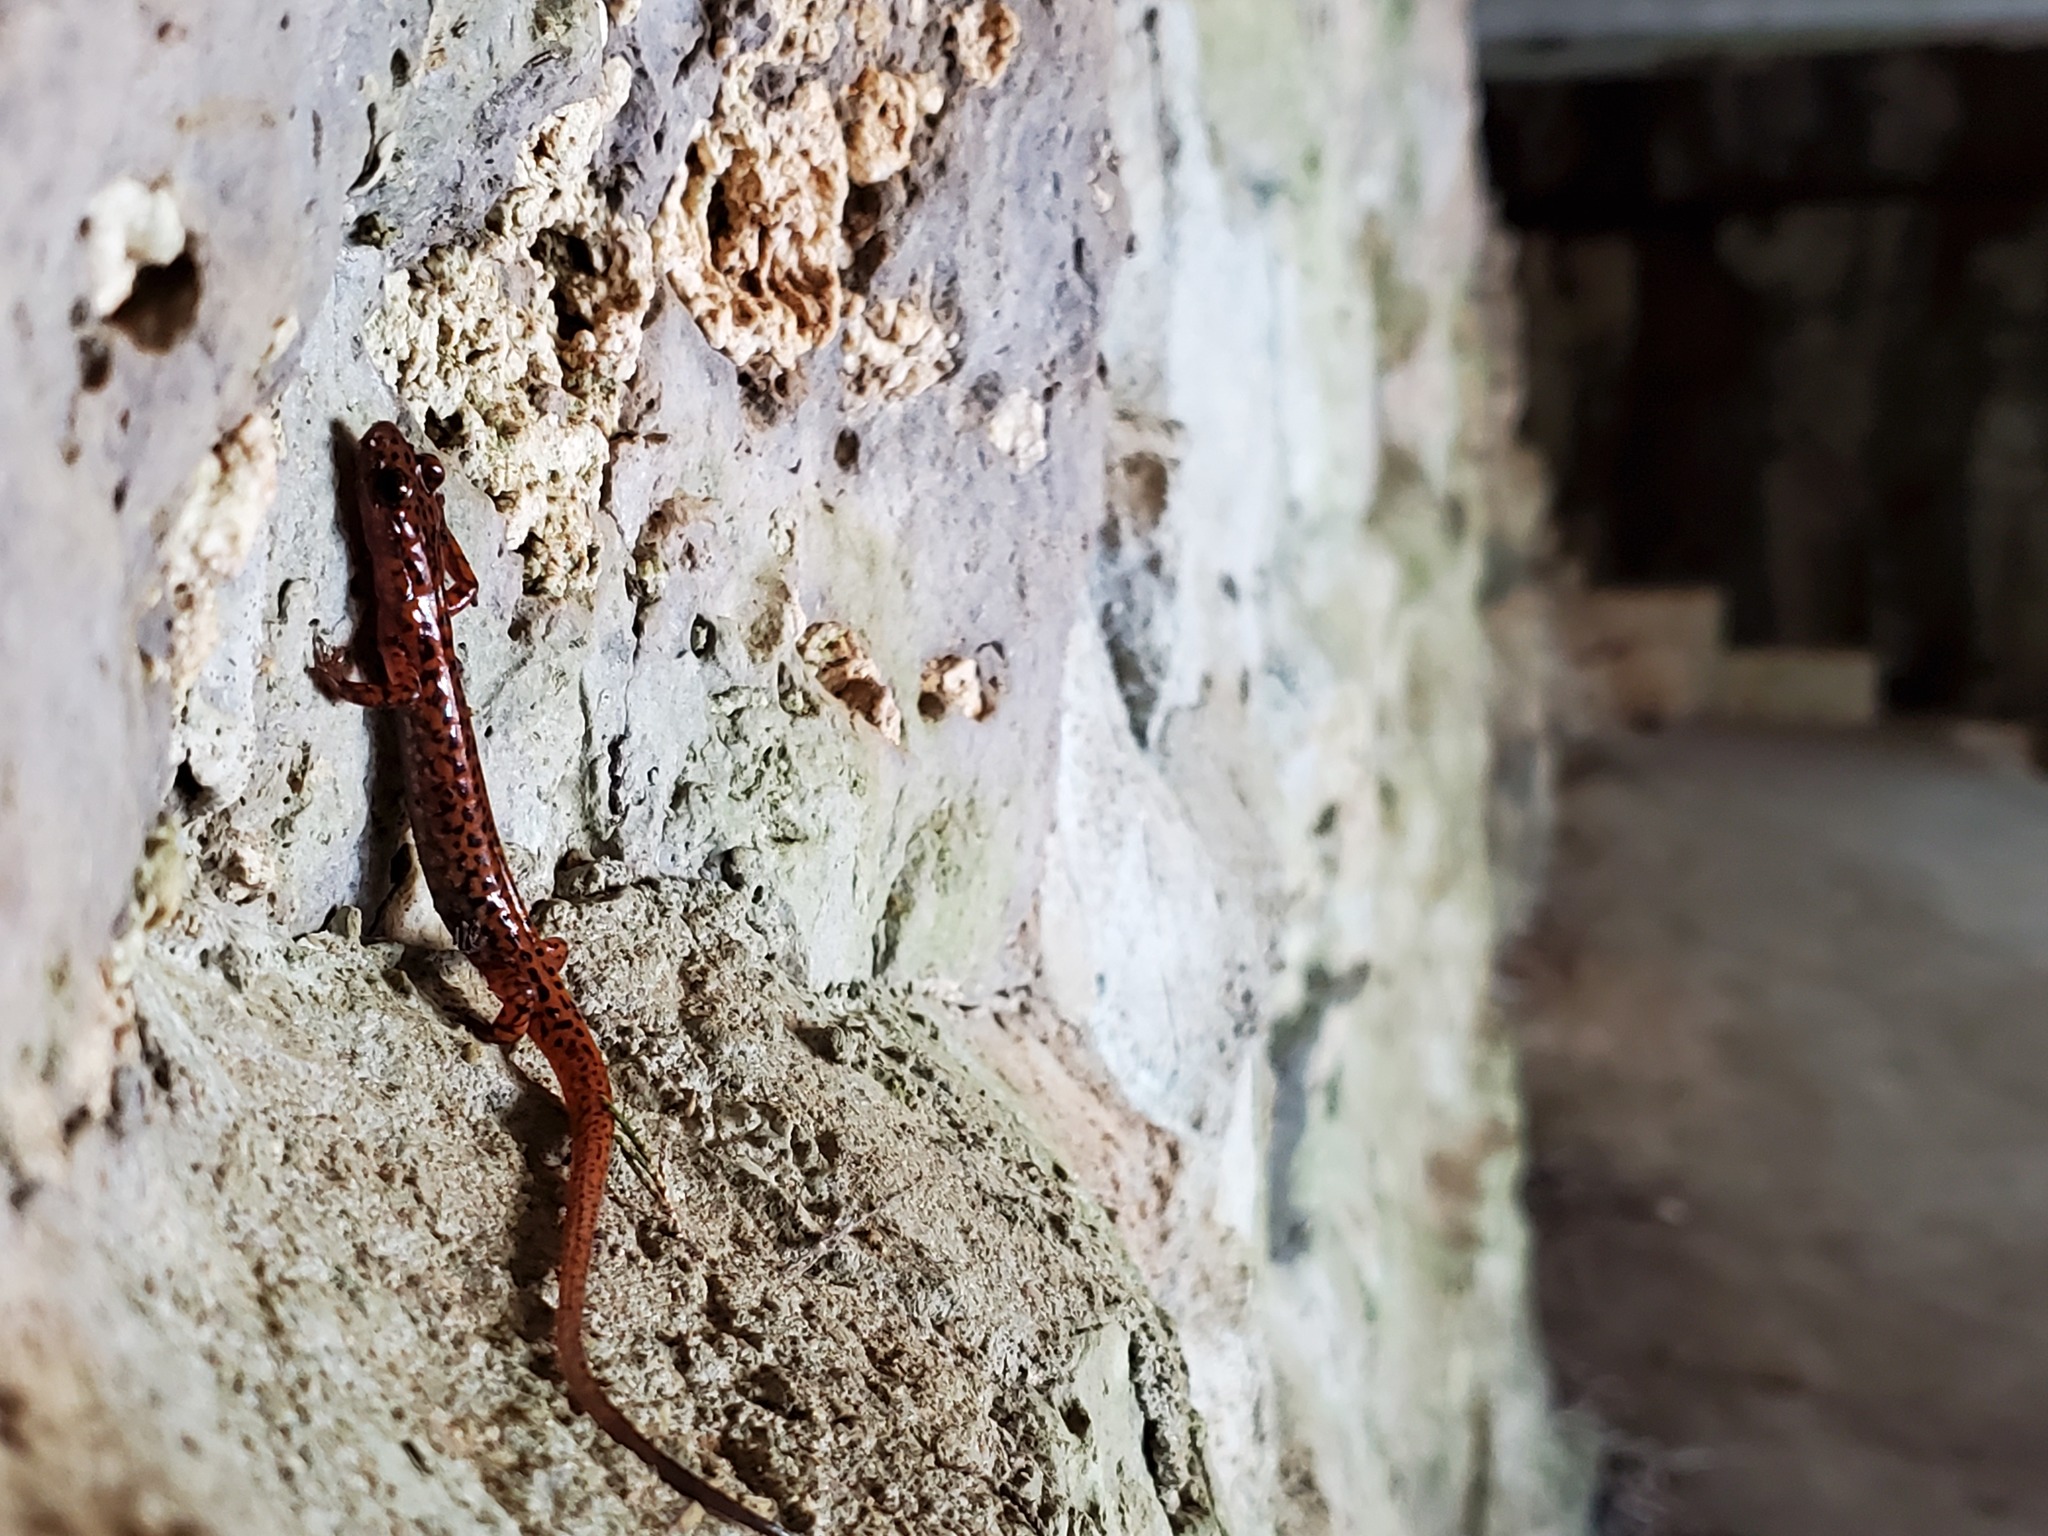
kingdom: Animalia
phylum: Chordata
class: Amphibia
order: Caudata
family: Plethodontidae
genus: Eurycea
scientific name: Eurycea lucifuga
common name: Cave salamander
